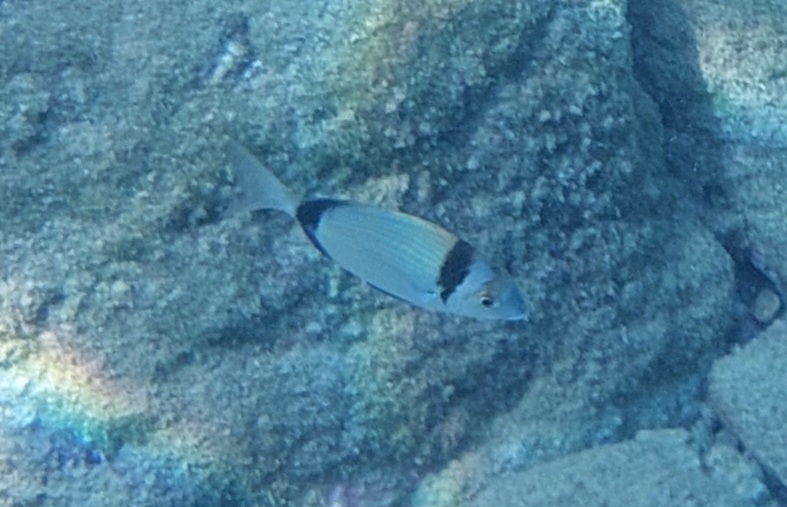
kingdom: Animalia
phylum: Chordata
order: Perciformes
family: Sparidae
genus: Diplodus
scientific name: Diplodus vulgaris
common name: Common two-banded seabream
